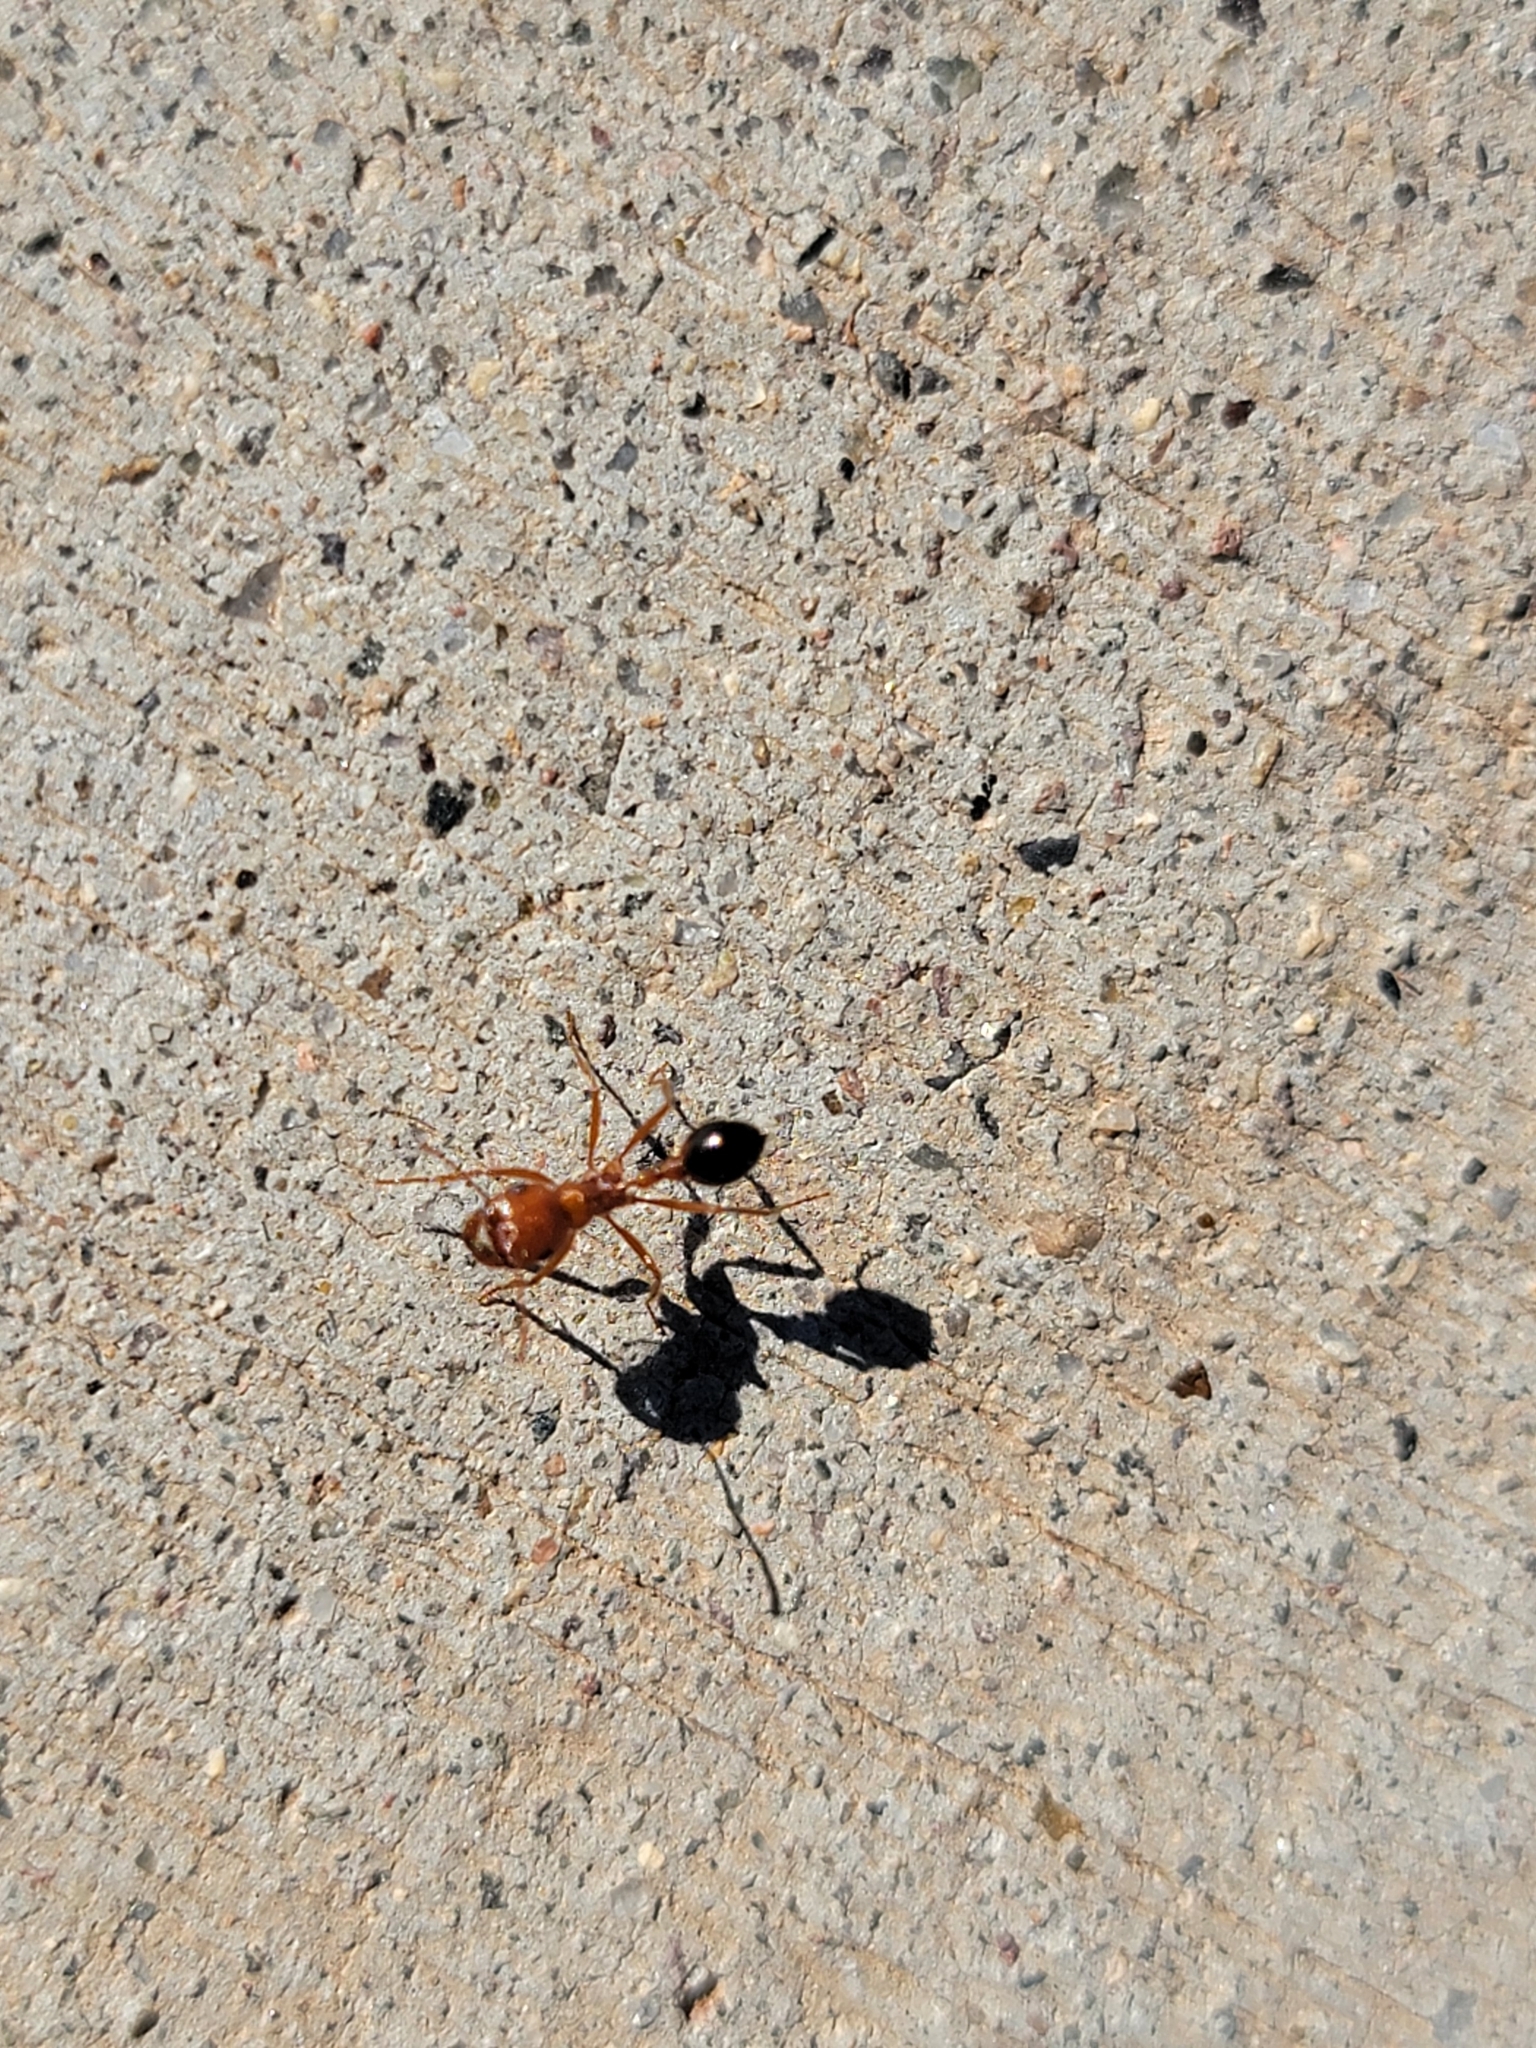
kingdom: Animalia
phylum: Arthropoda
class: Insecta
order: Hymenoptera
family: Formicidae
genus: Pogonomyrmex
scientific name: Pogonomyrmex californicus
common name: California harvester ant
